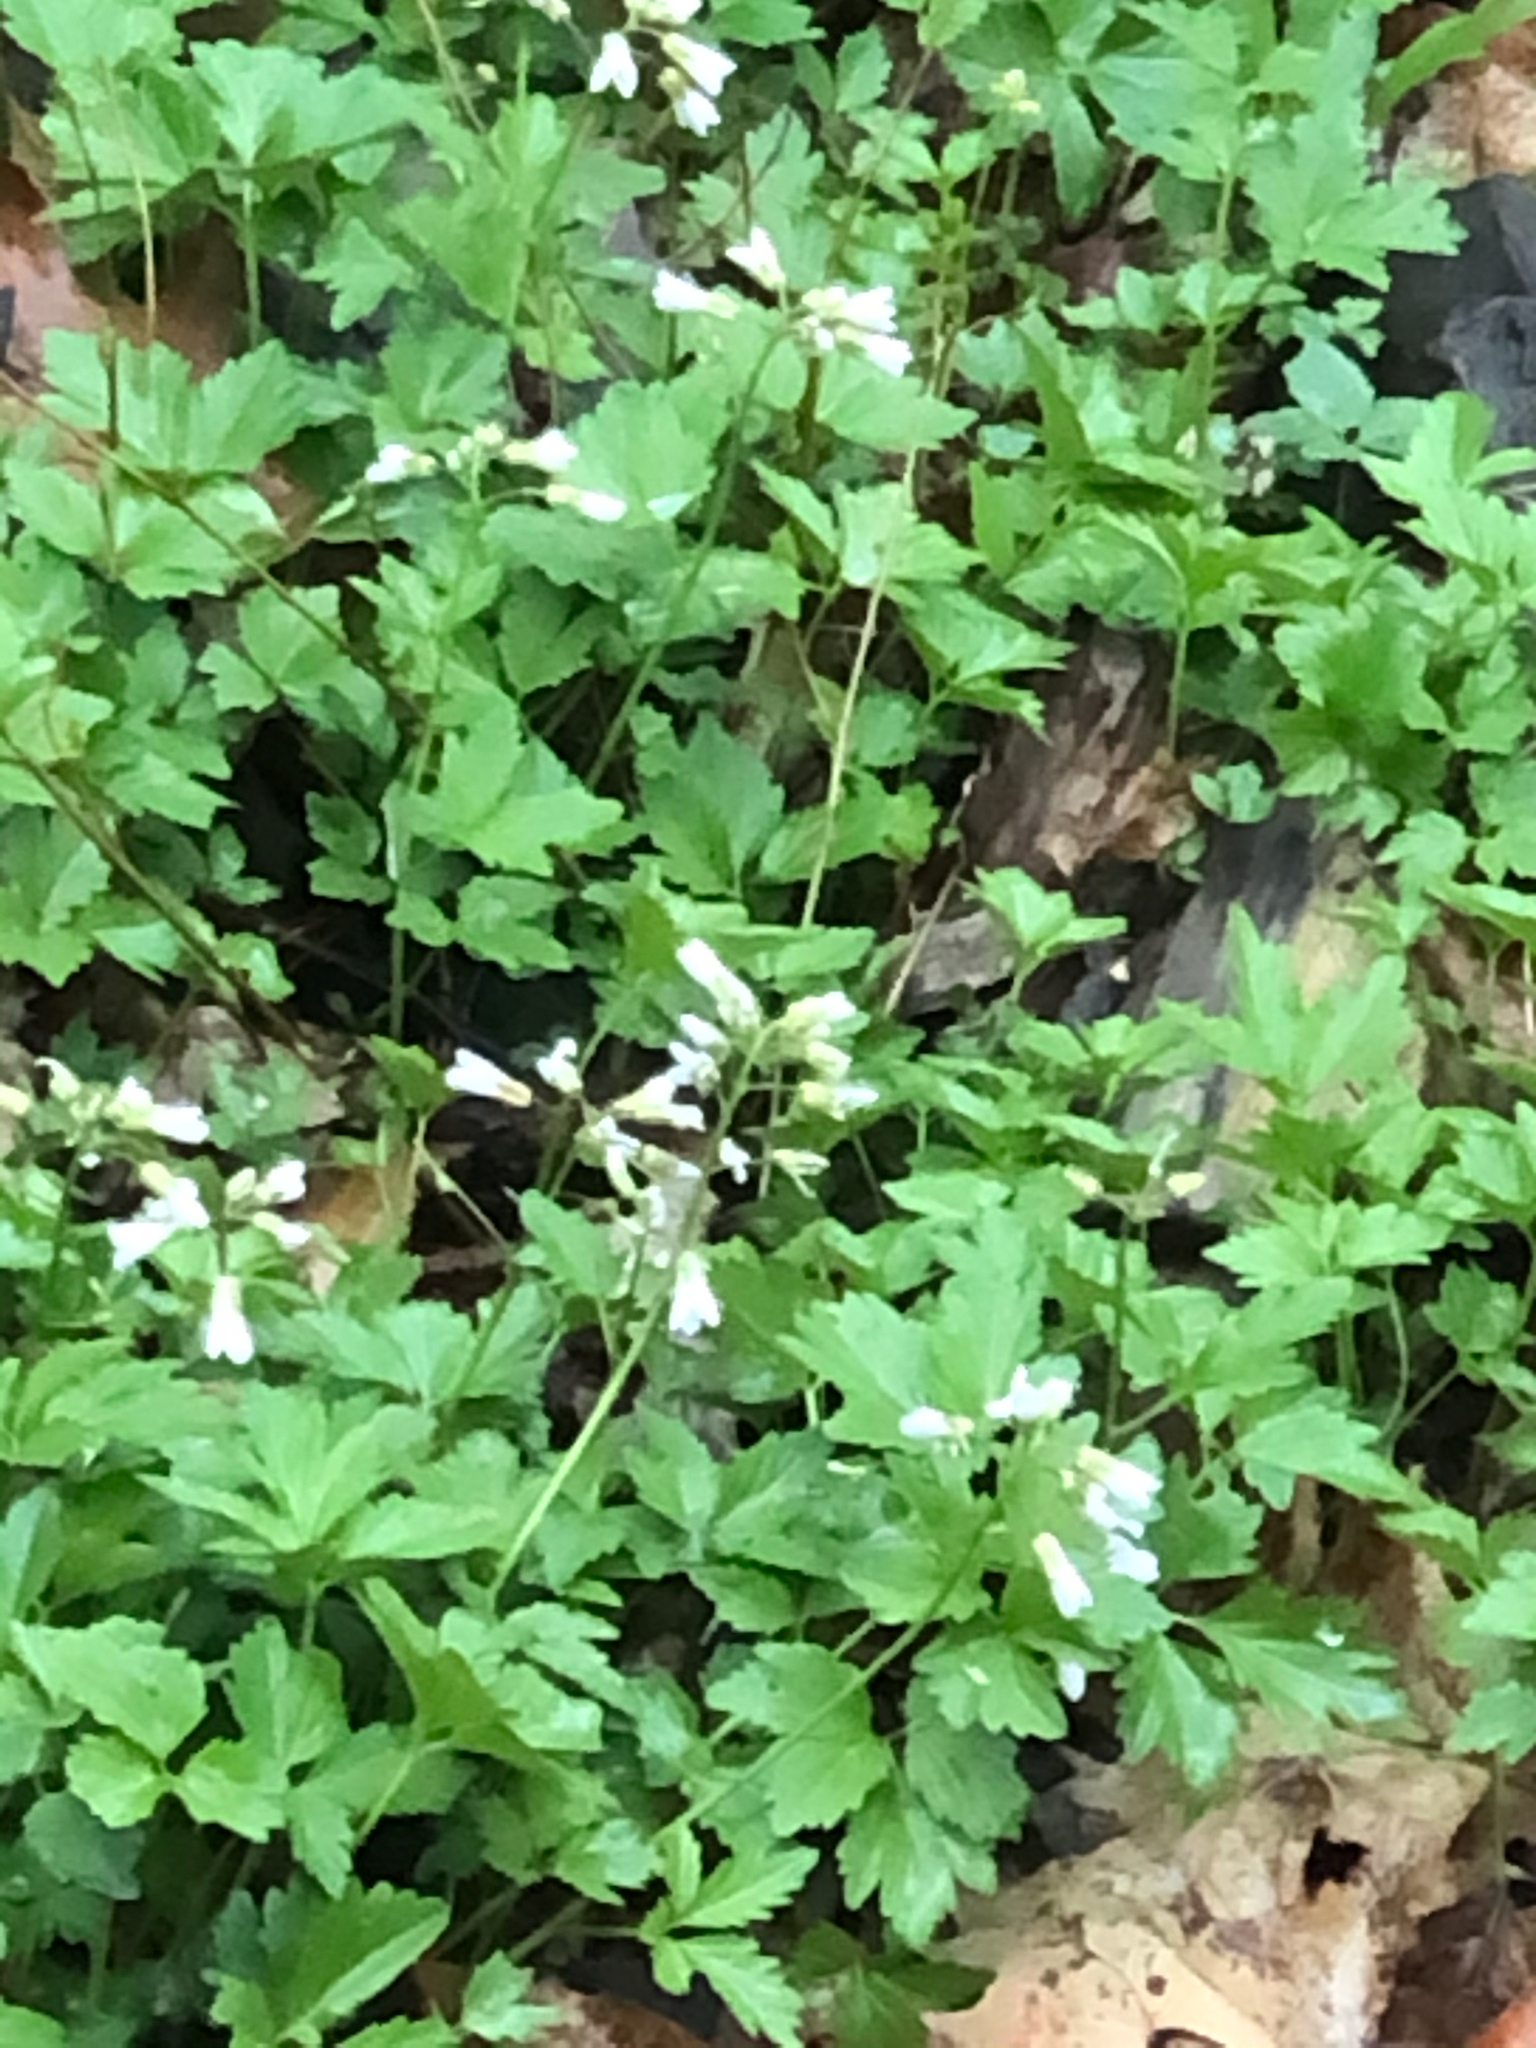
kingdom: Plantae
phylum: Tracheophyta
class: Magnoliopsida
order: Brassicales
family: Brassicaceae
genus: Cardamine
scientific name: Cardamine diphylla
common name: Broad-leaved toothwort
